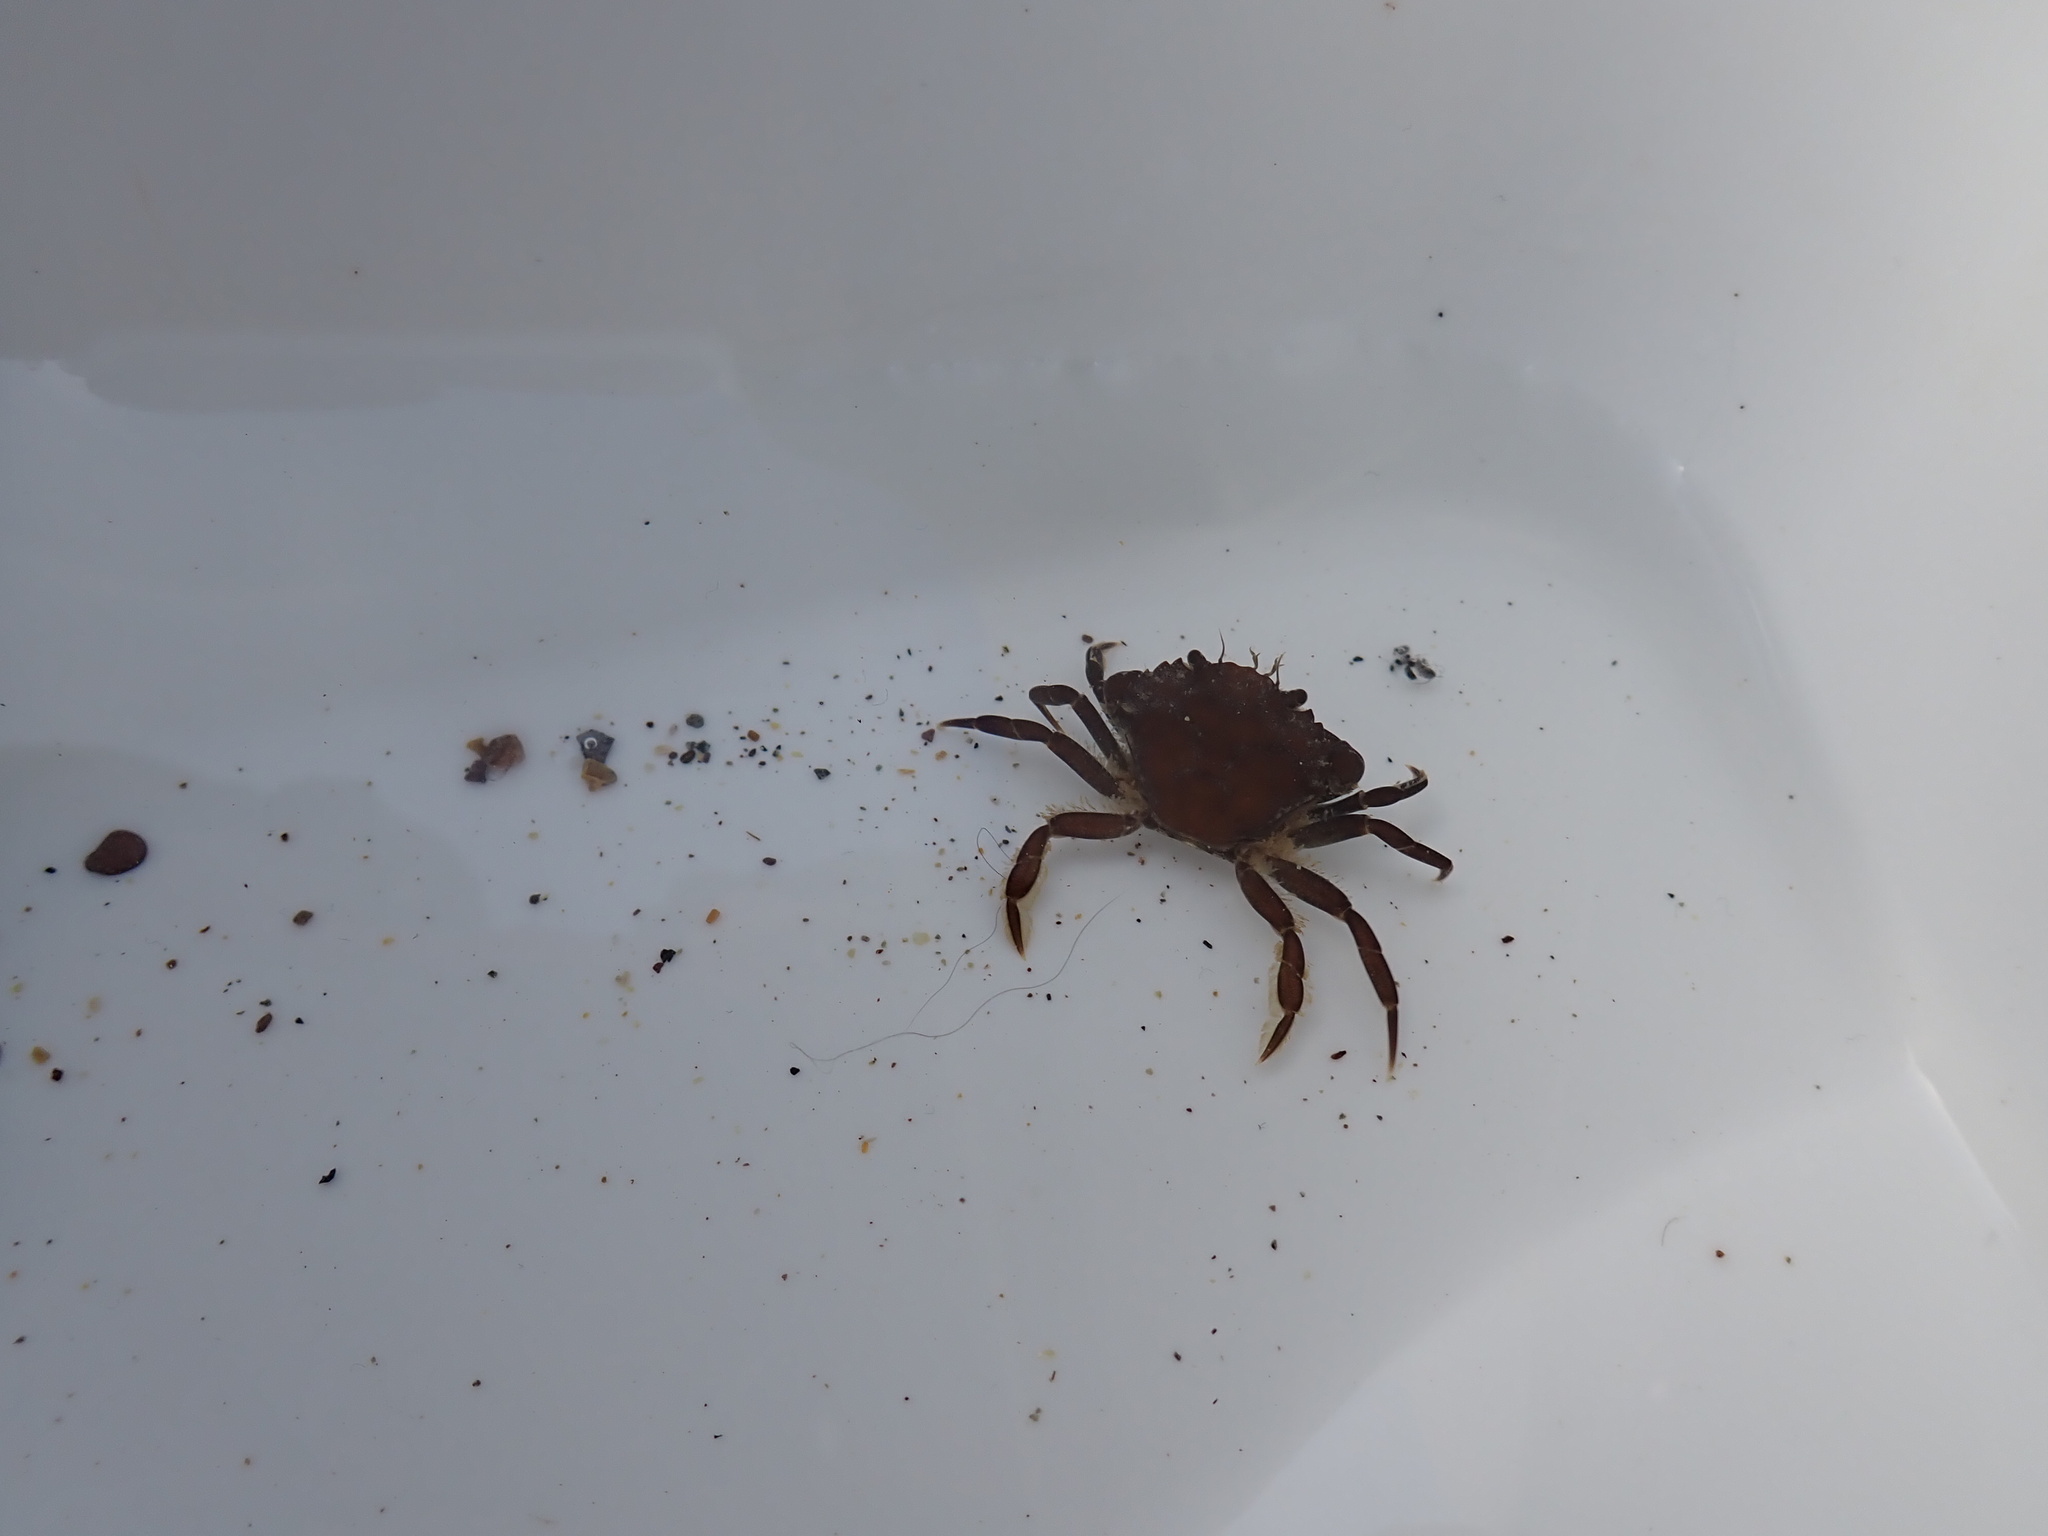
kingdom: Animalia
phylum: Arthropoda
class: Malacostraca
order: Decapoda
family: Carcinidae
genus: Carcinus
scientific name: Carcinus maenas
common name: European green crab
